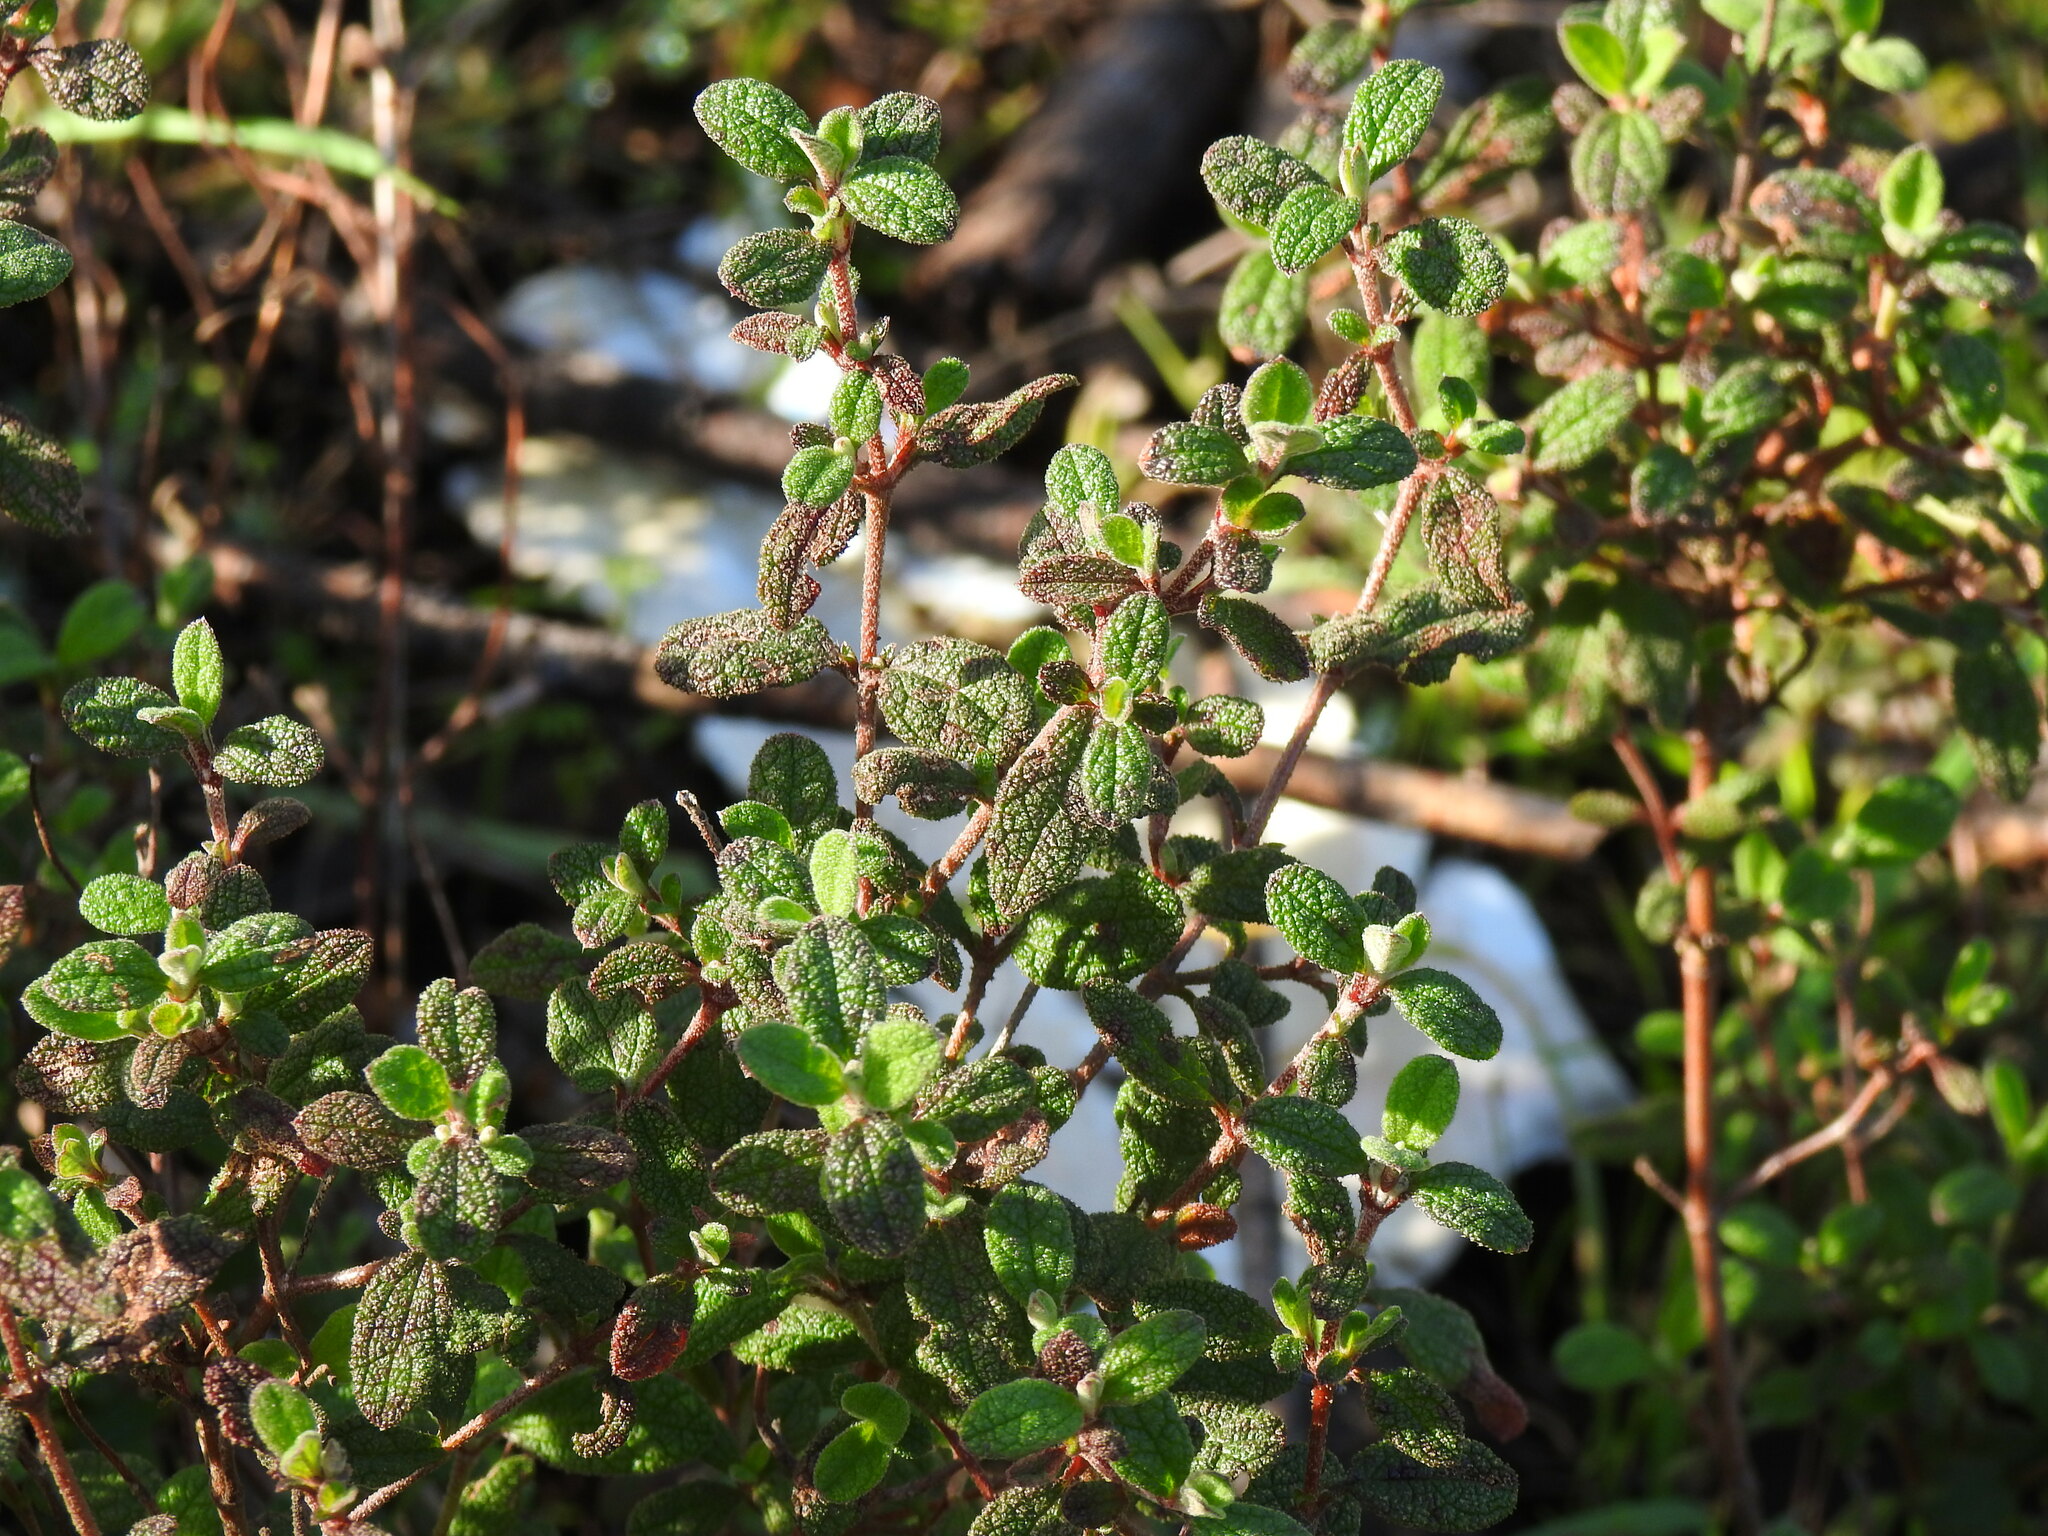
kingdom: Plantae
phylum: Tracheophyta
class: Magnoliopsida
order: Malvales
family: Cistaceae
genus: Cistus
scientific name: Cistus salviifolius
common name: Salvia cistus
